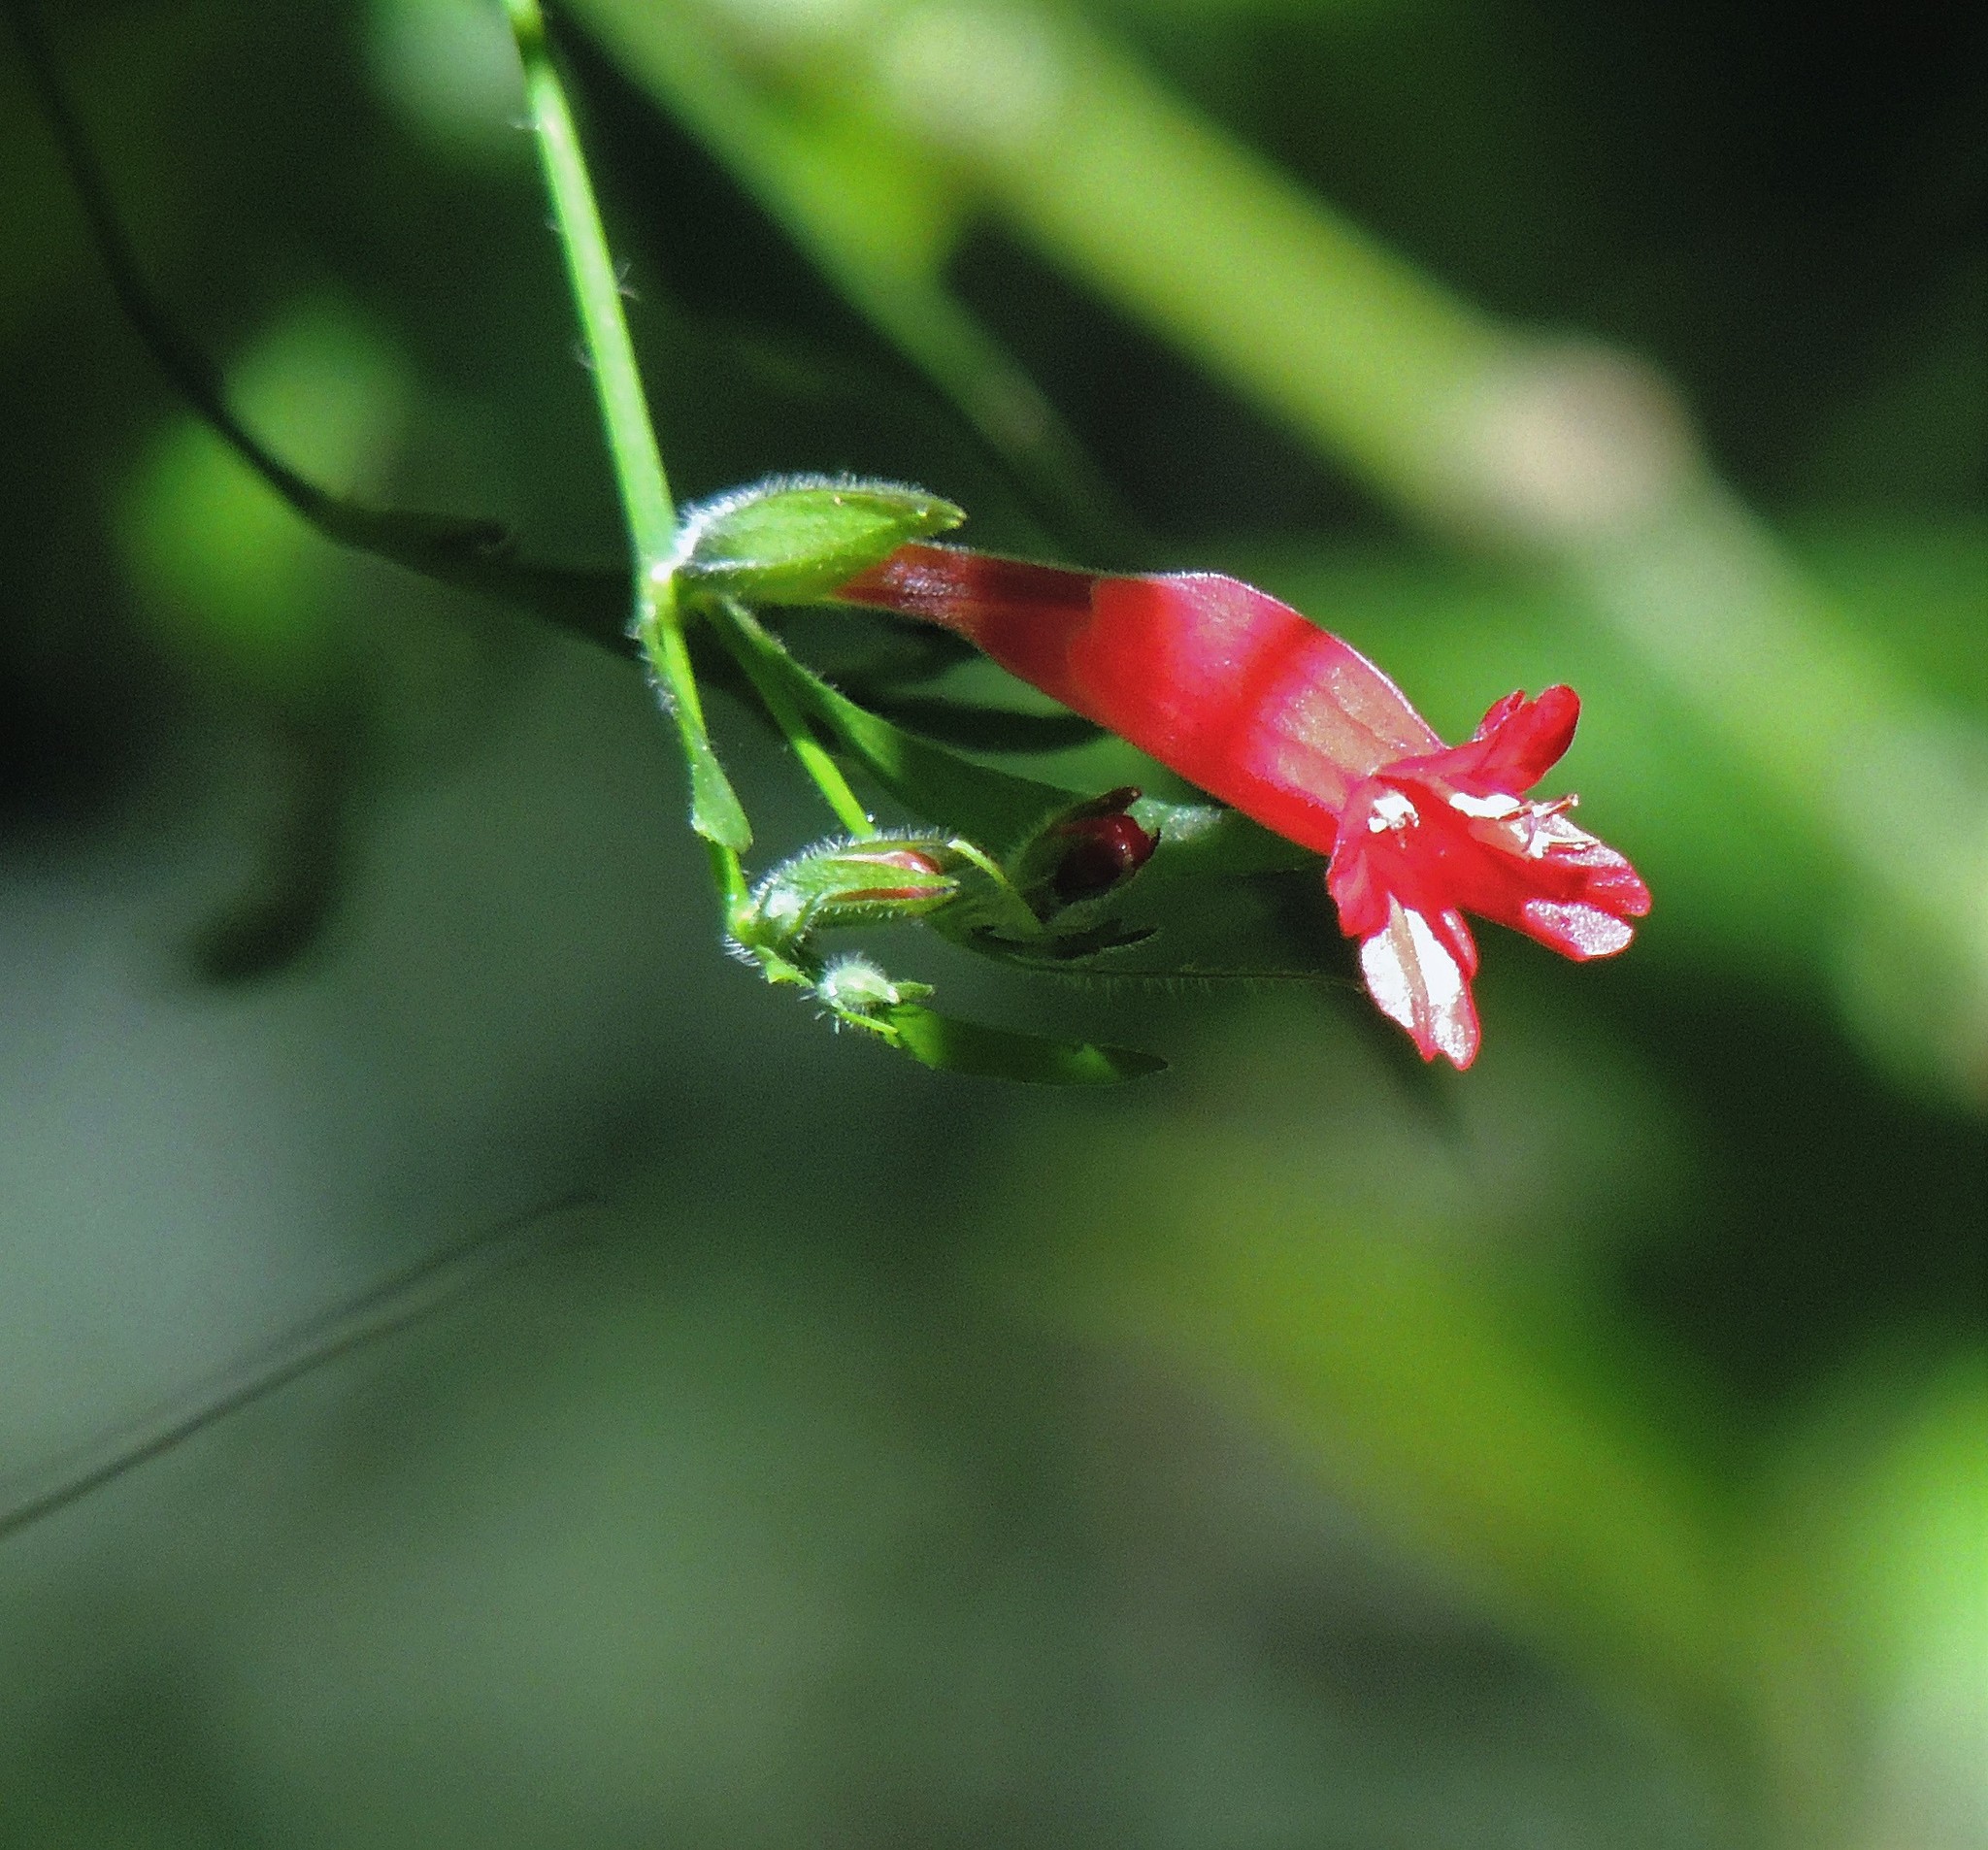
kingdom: Plantae
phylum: Tracheophyta
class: Magnoliopsida
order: Lamiales
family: Acanthaceae
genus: Ruellia
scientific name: Ruellia angustiflora
